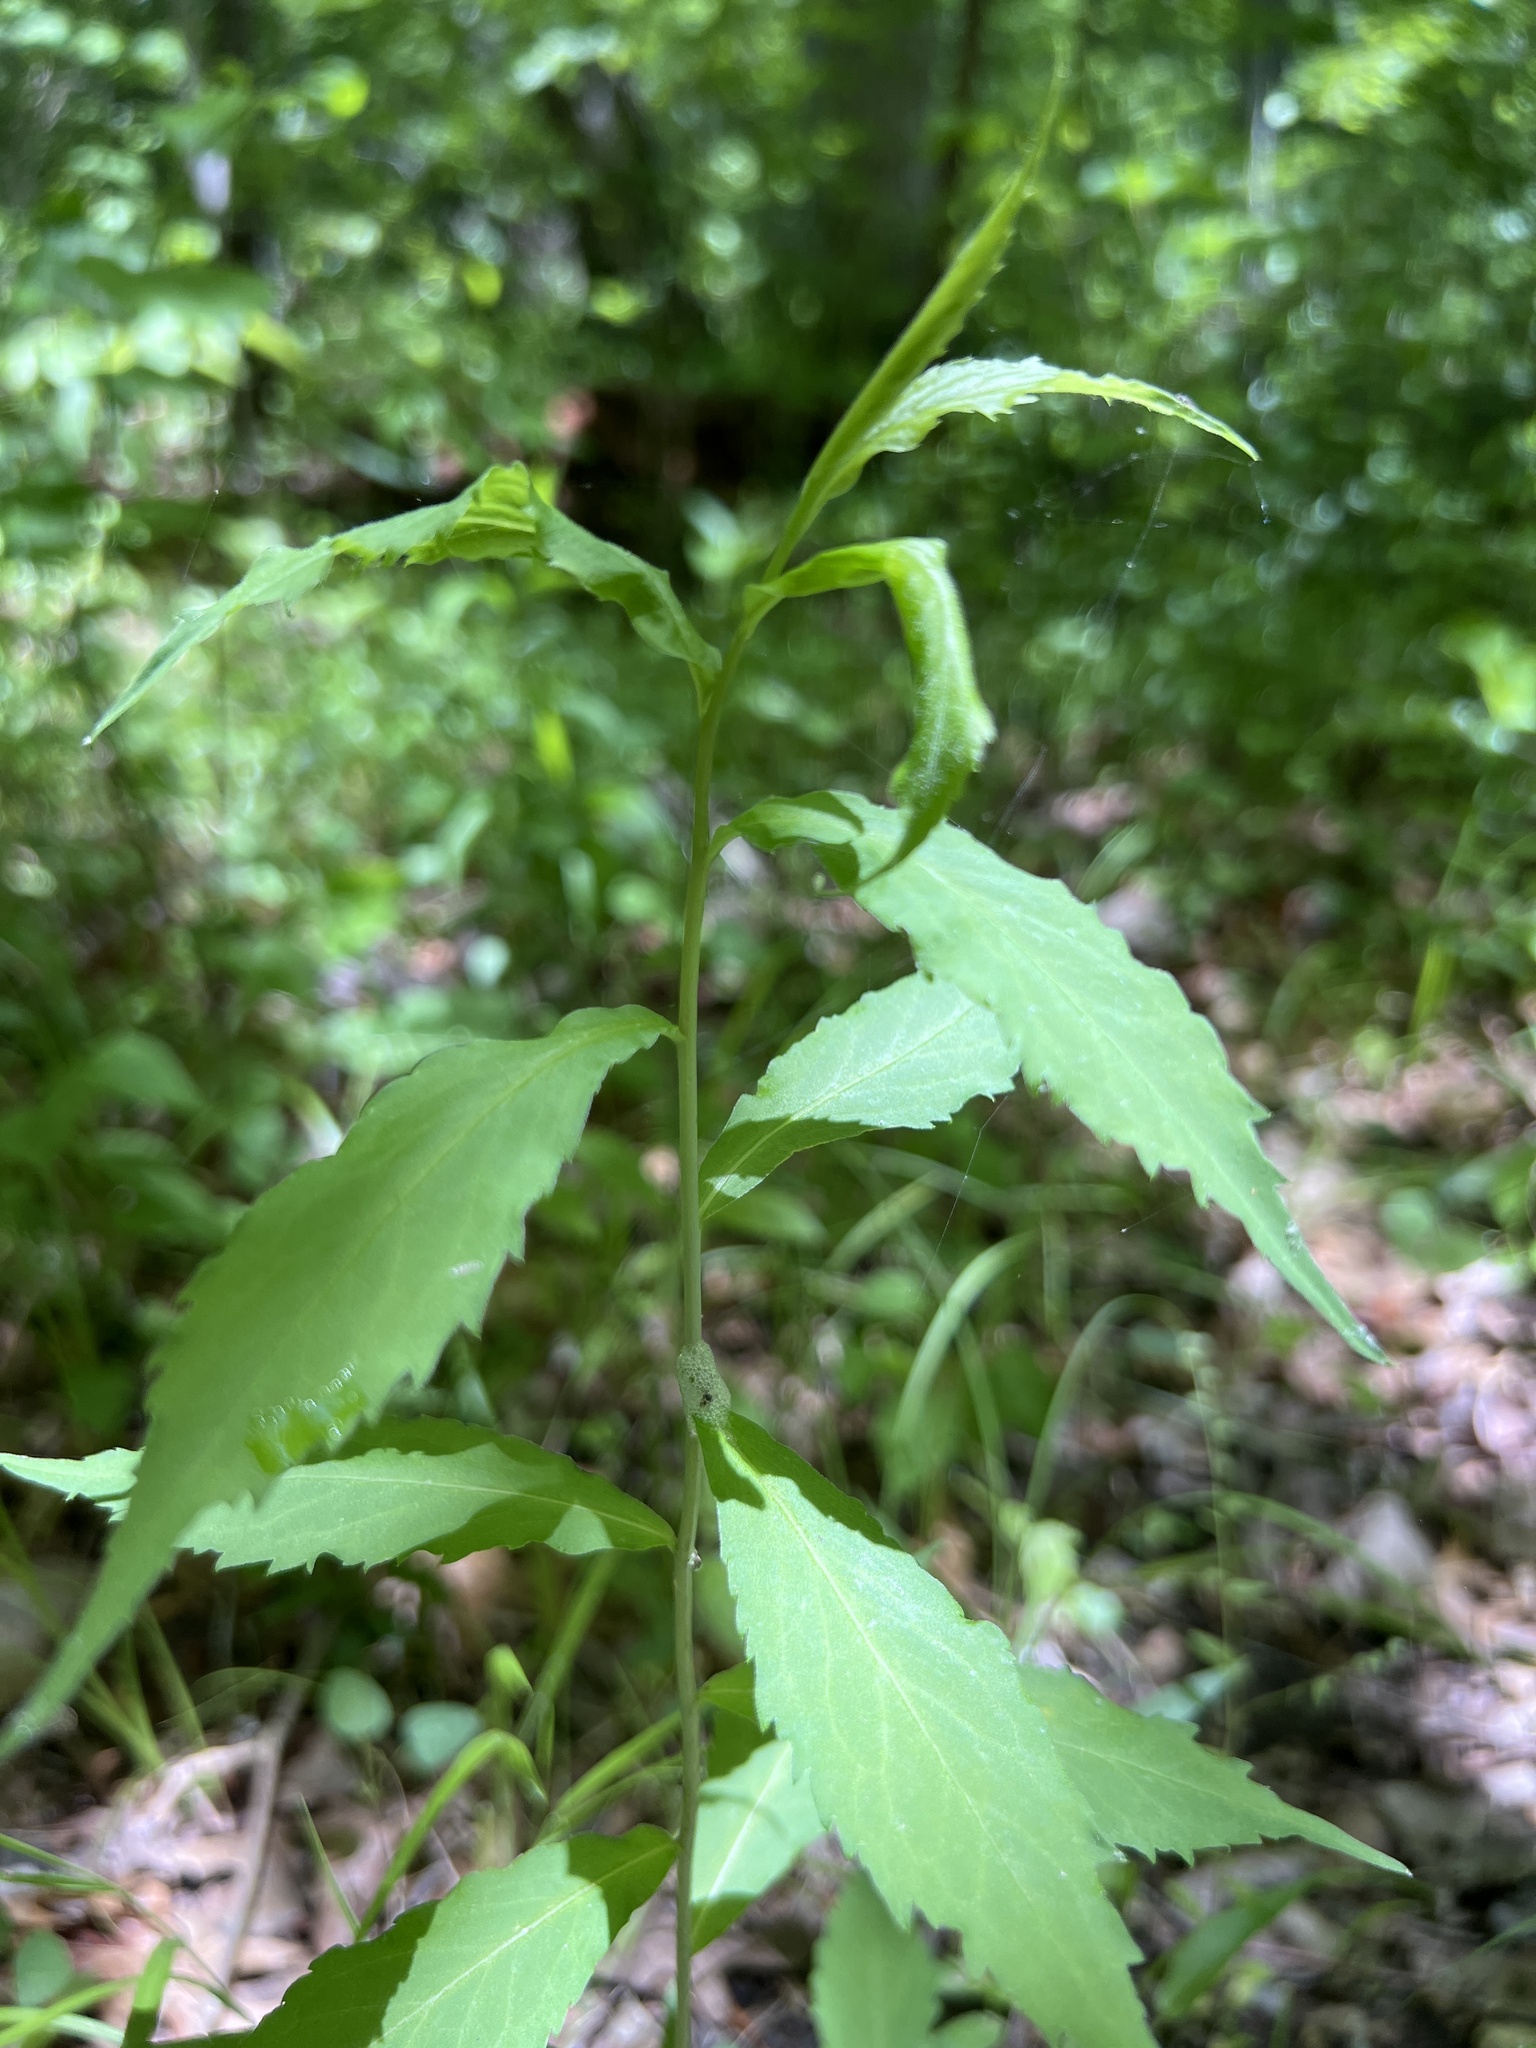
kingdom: Plantae
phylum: Tracheophyta
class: Magnoliopsida
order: Asterales
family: Asteraceae
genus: Solidago
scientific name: Solidago caesia
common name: Woodland goldenrod
